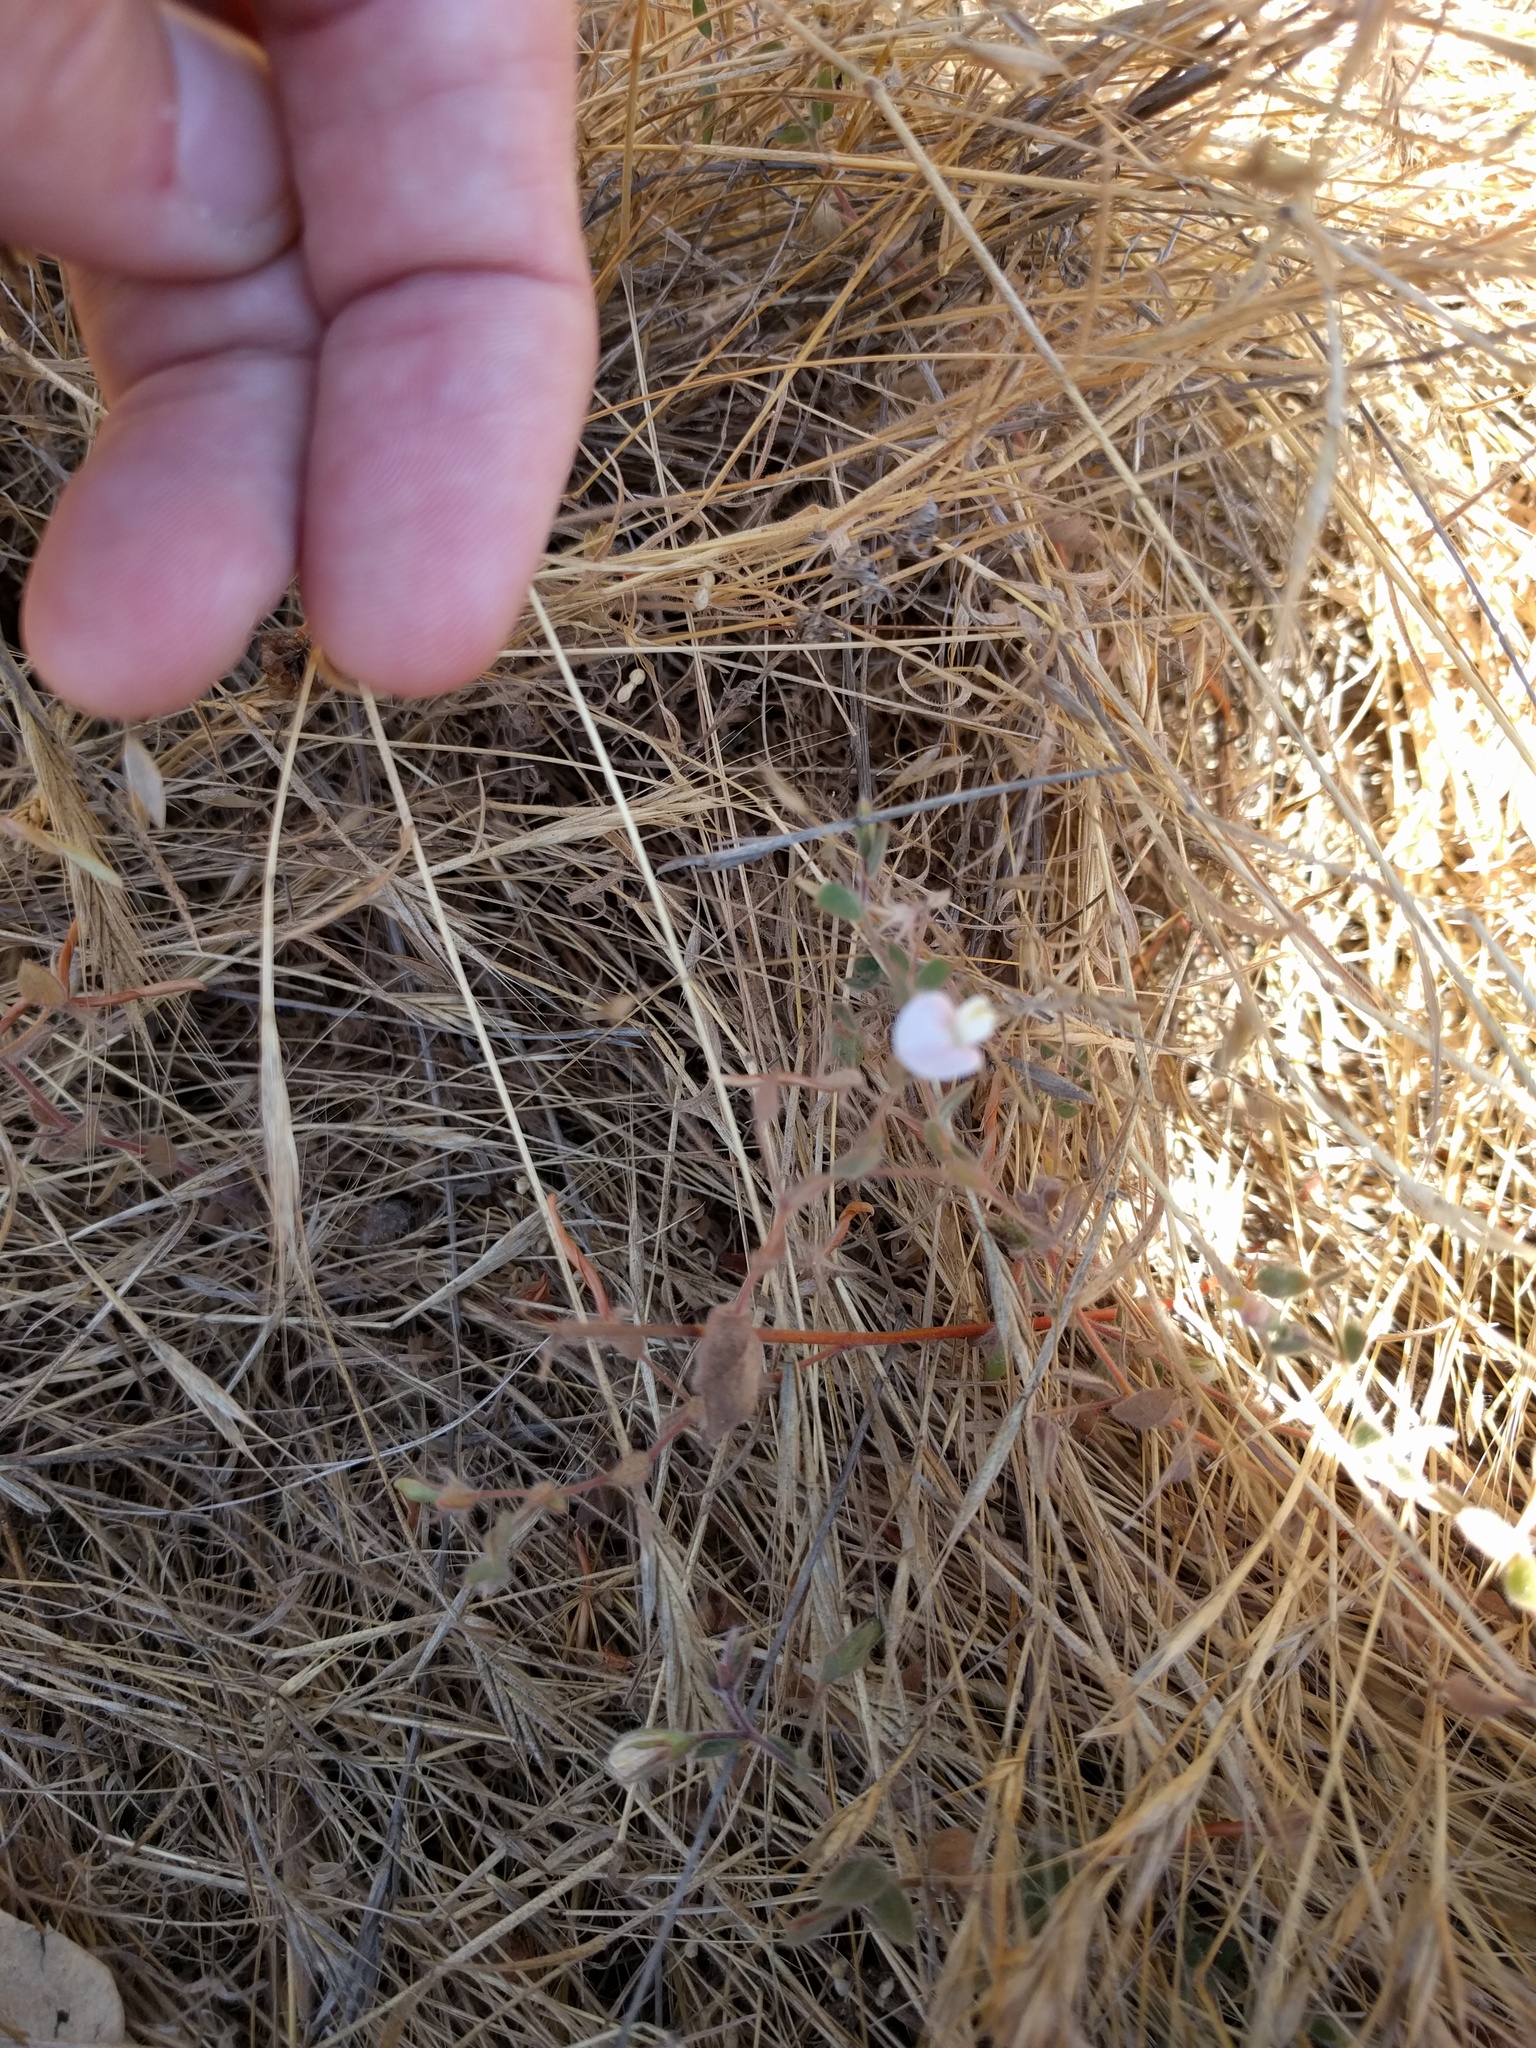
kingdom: Plantae
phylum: Tracheophyta
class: Magnoliopsida
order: Fabales
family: Fabaceae
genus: Acmispon
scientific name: Acmispon americanus
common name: American bird's-foot trefoil
